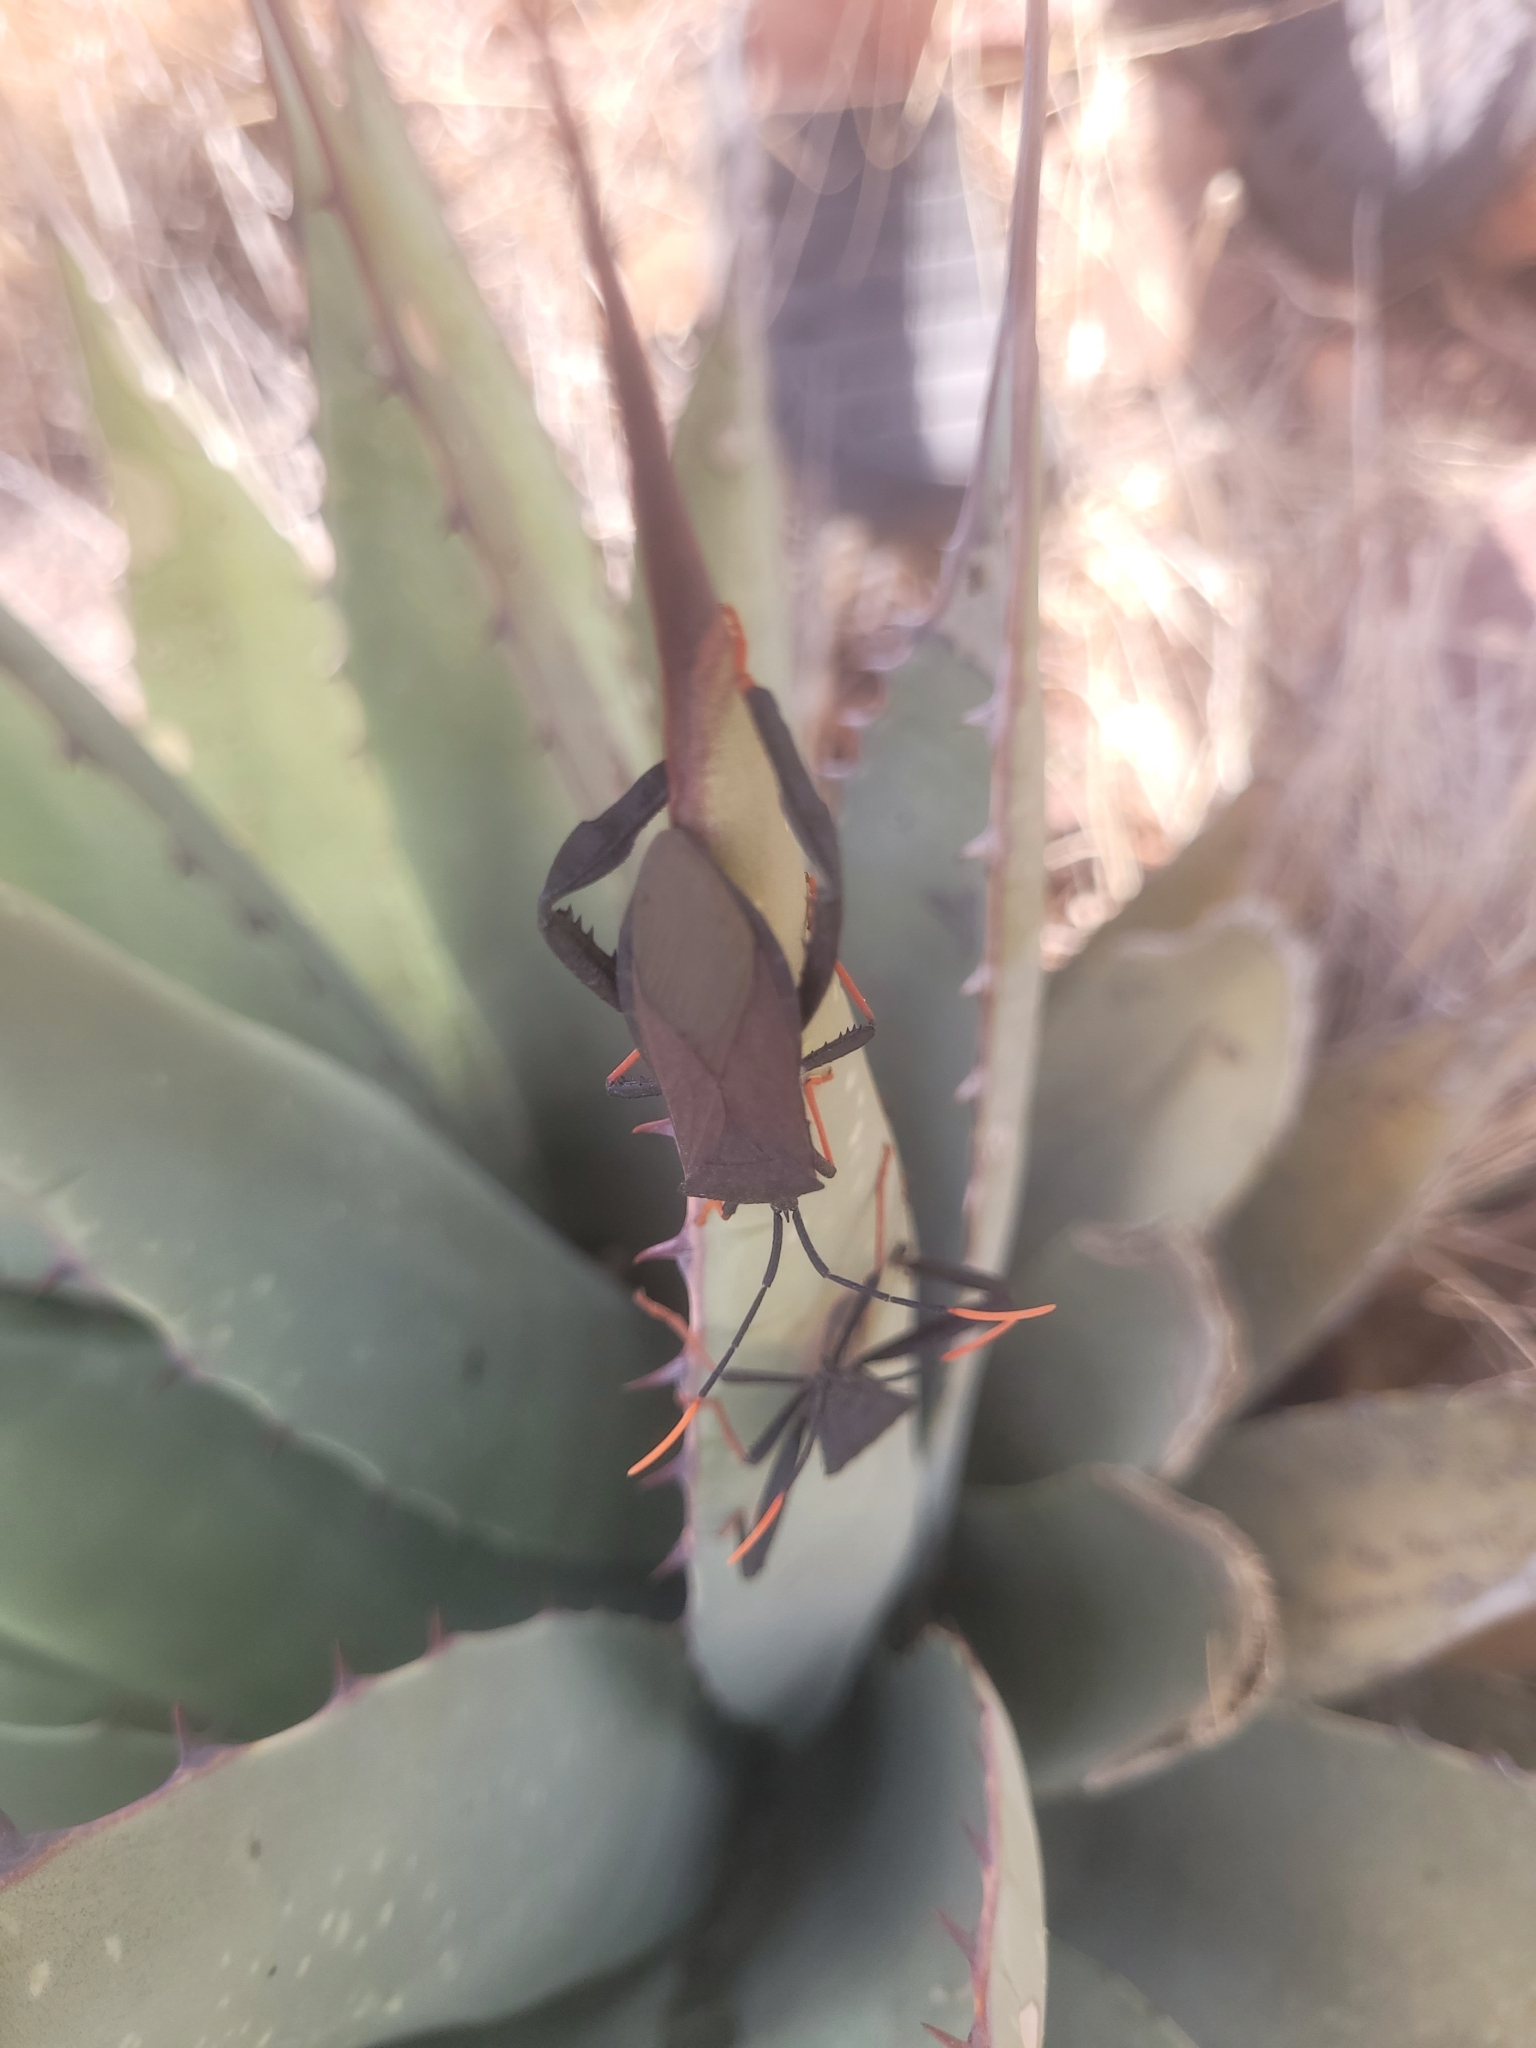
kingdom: Animalia
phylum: Arthropoda
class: Insecta
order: Hemiptera
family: Coreidae
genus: Acanthocephala
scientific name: Acanthocephala thomasi
